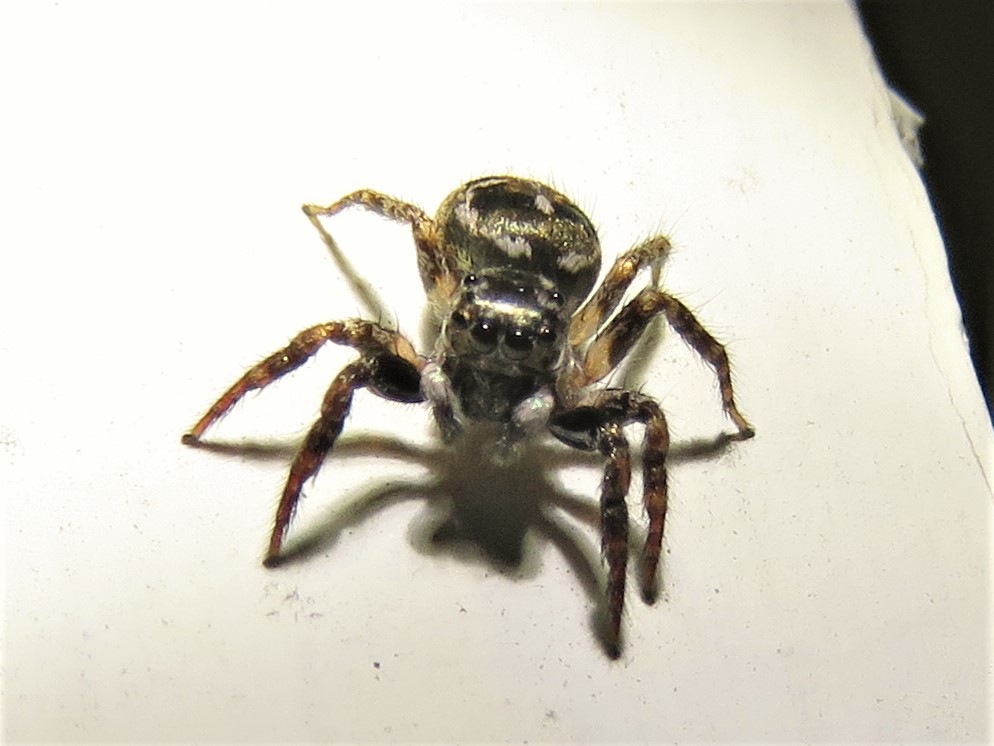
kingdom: Animalia
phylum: Arthropoda
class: Arachnida
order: Araneae
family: Salticidae
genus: Anasaitis
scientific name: Anasaitis canosa
